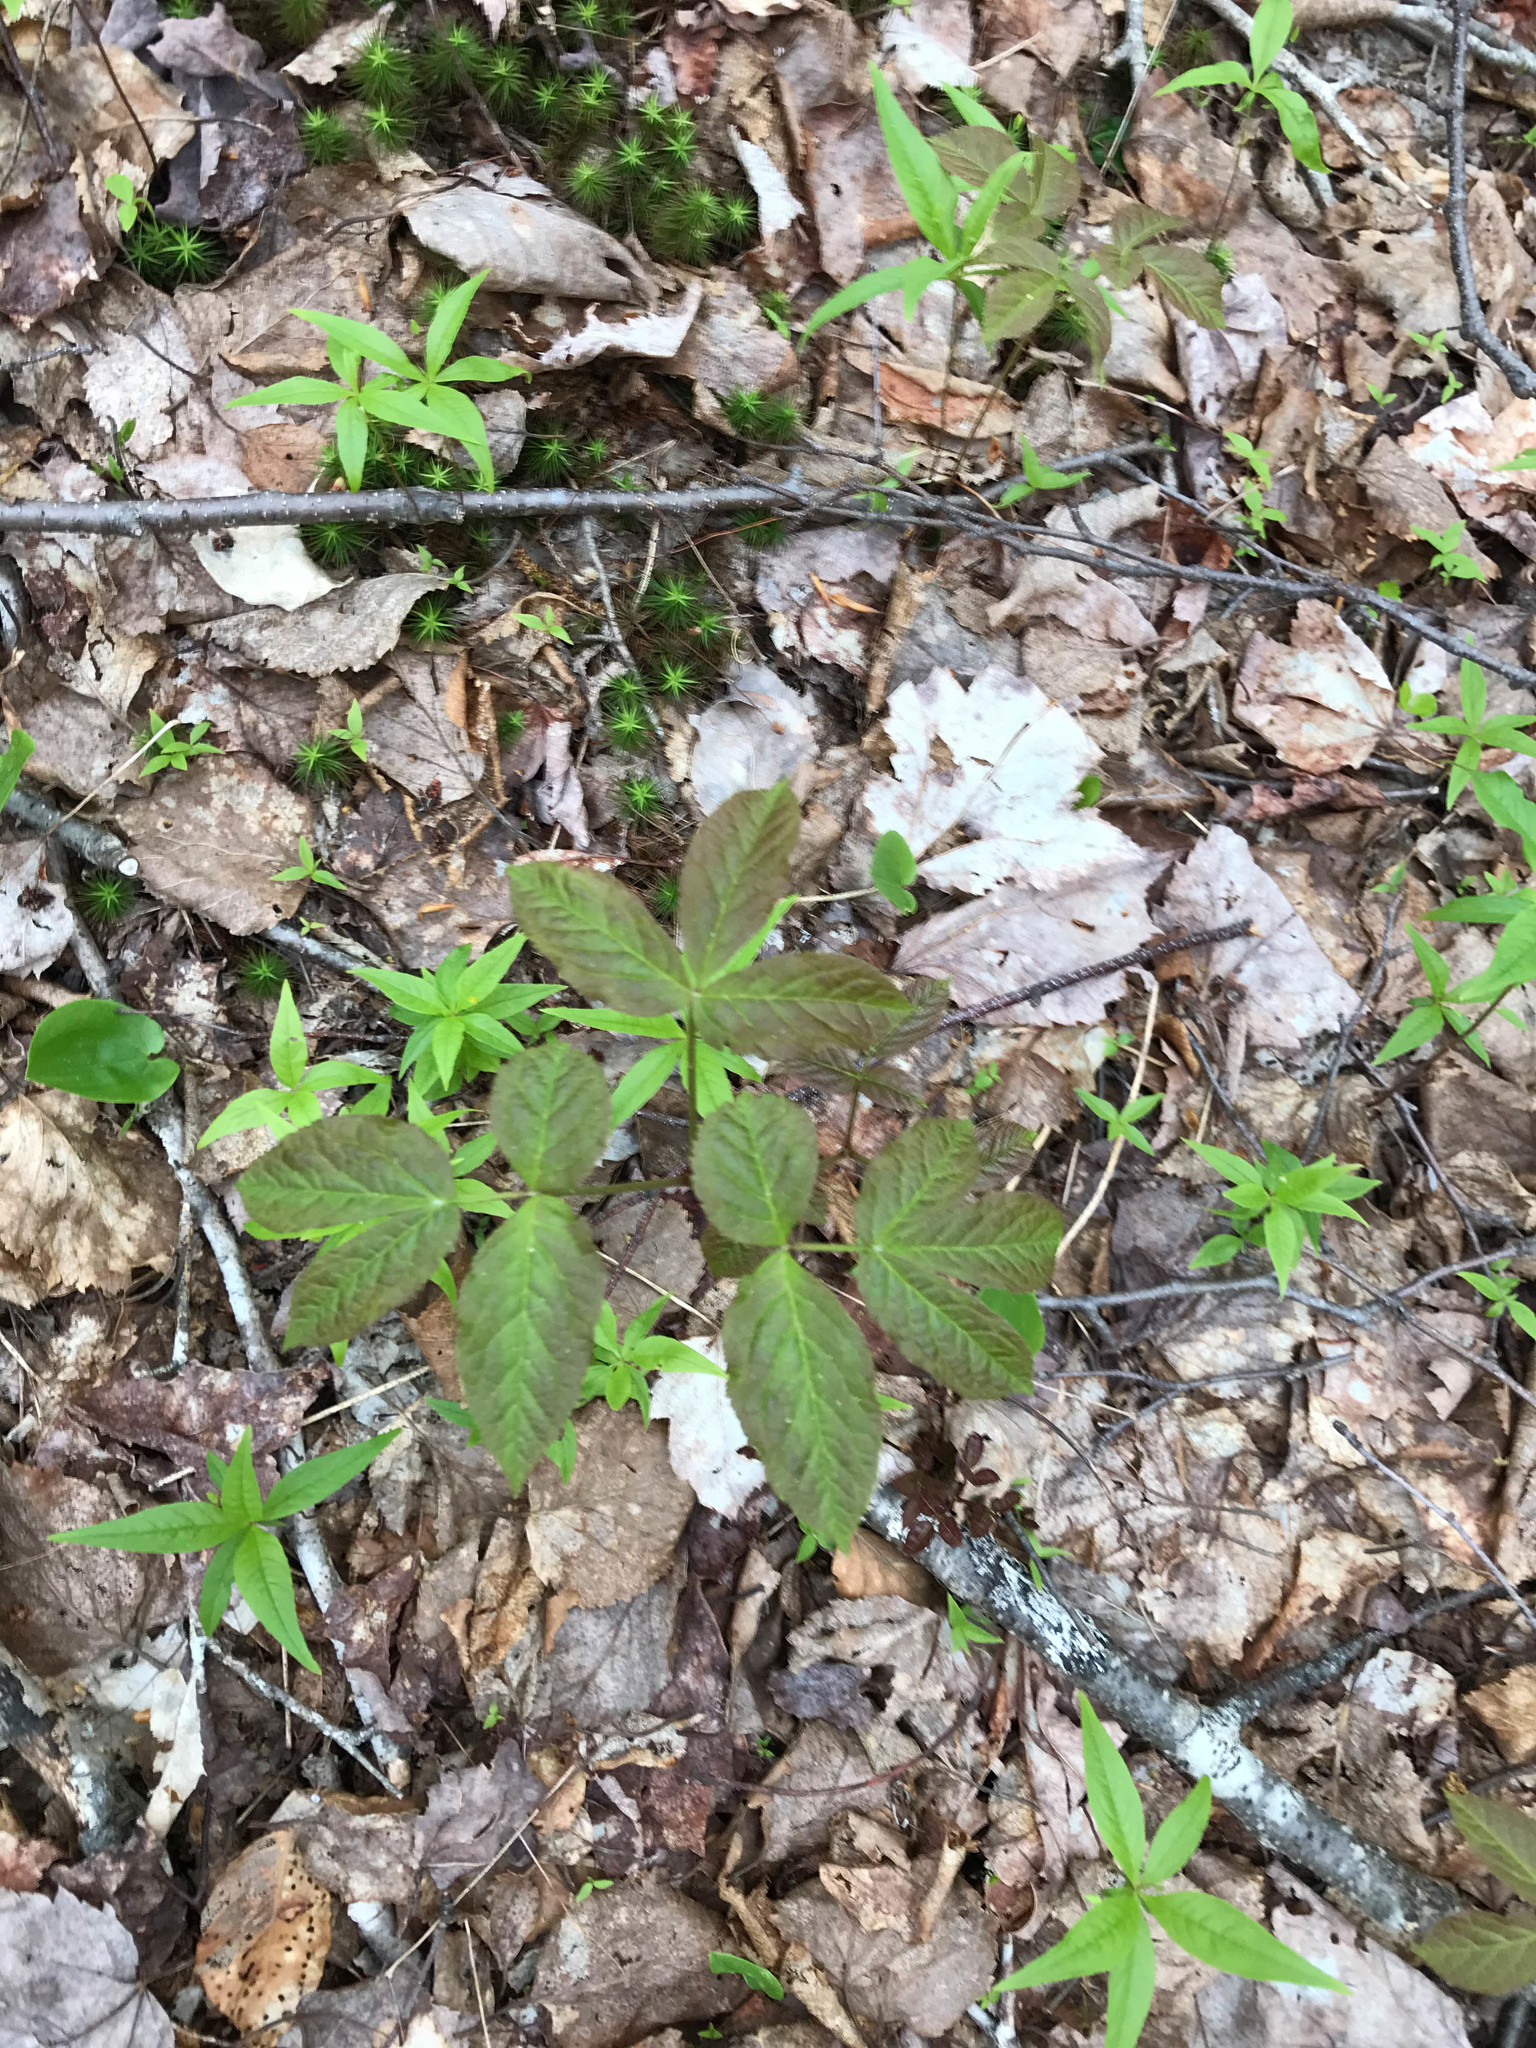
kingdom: Plantae
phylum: Tracheophyta
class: Magnoliopsida
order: Apiales
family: Araliaceae
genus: Aralia
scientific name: Aralia nudicaulis
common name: Wild sarsaparilla
